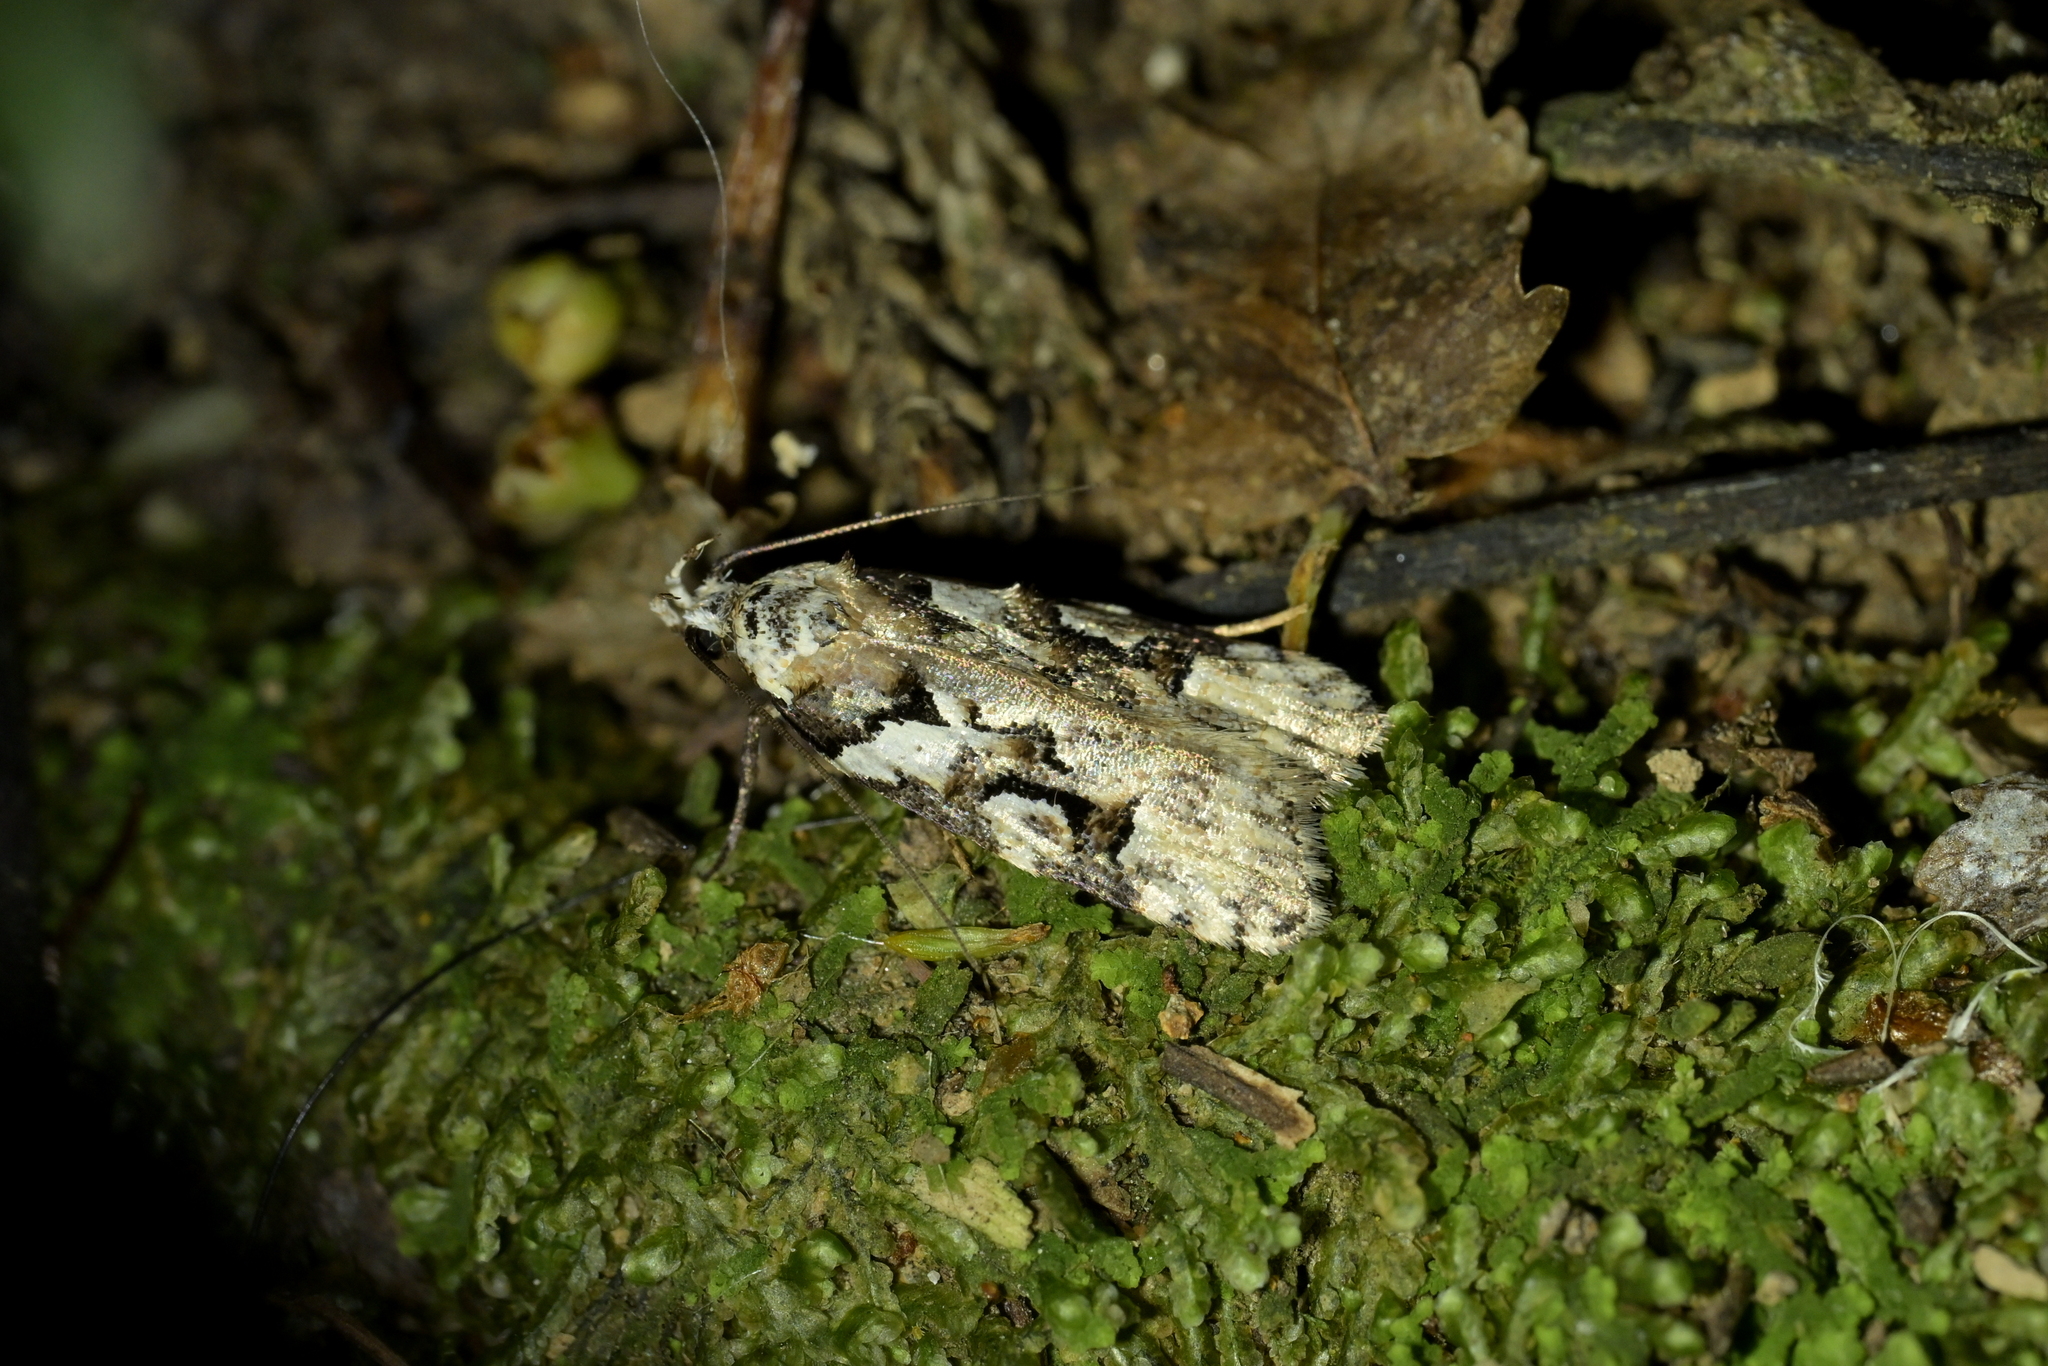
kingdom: Animalia
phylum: Arthropoda
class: Insecta
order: Lepidoptera
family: Oecophoridae
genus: Izatha
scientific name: Izatha epiphanes
